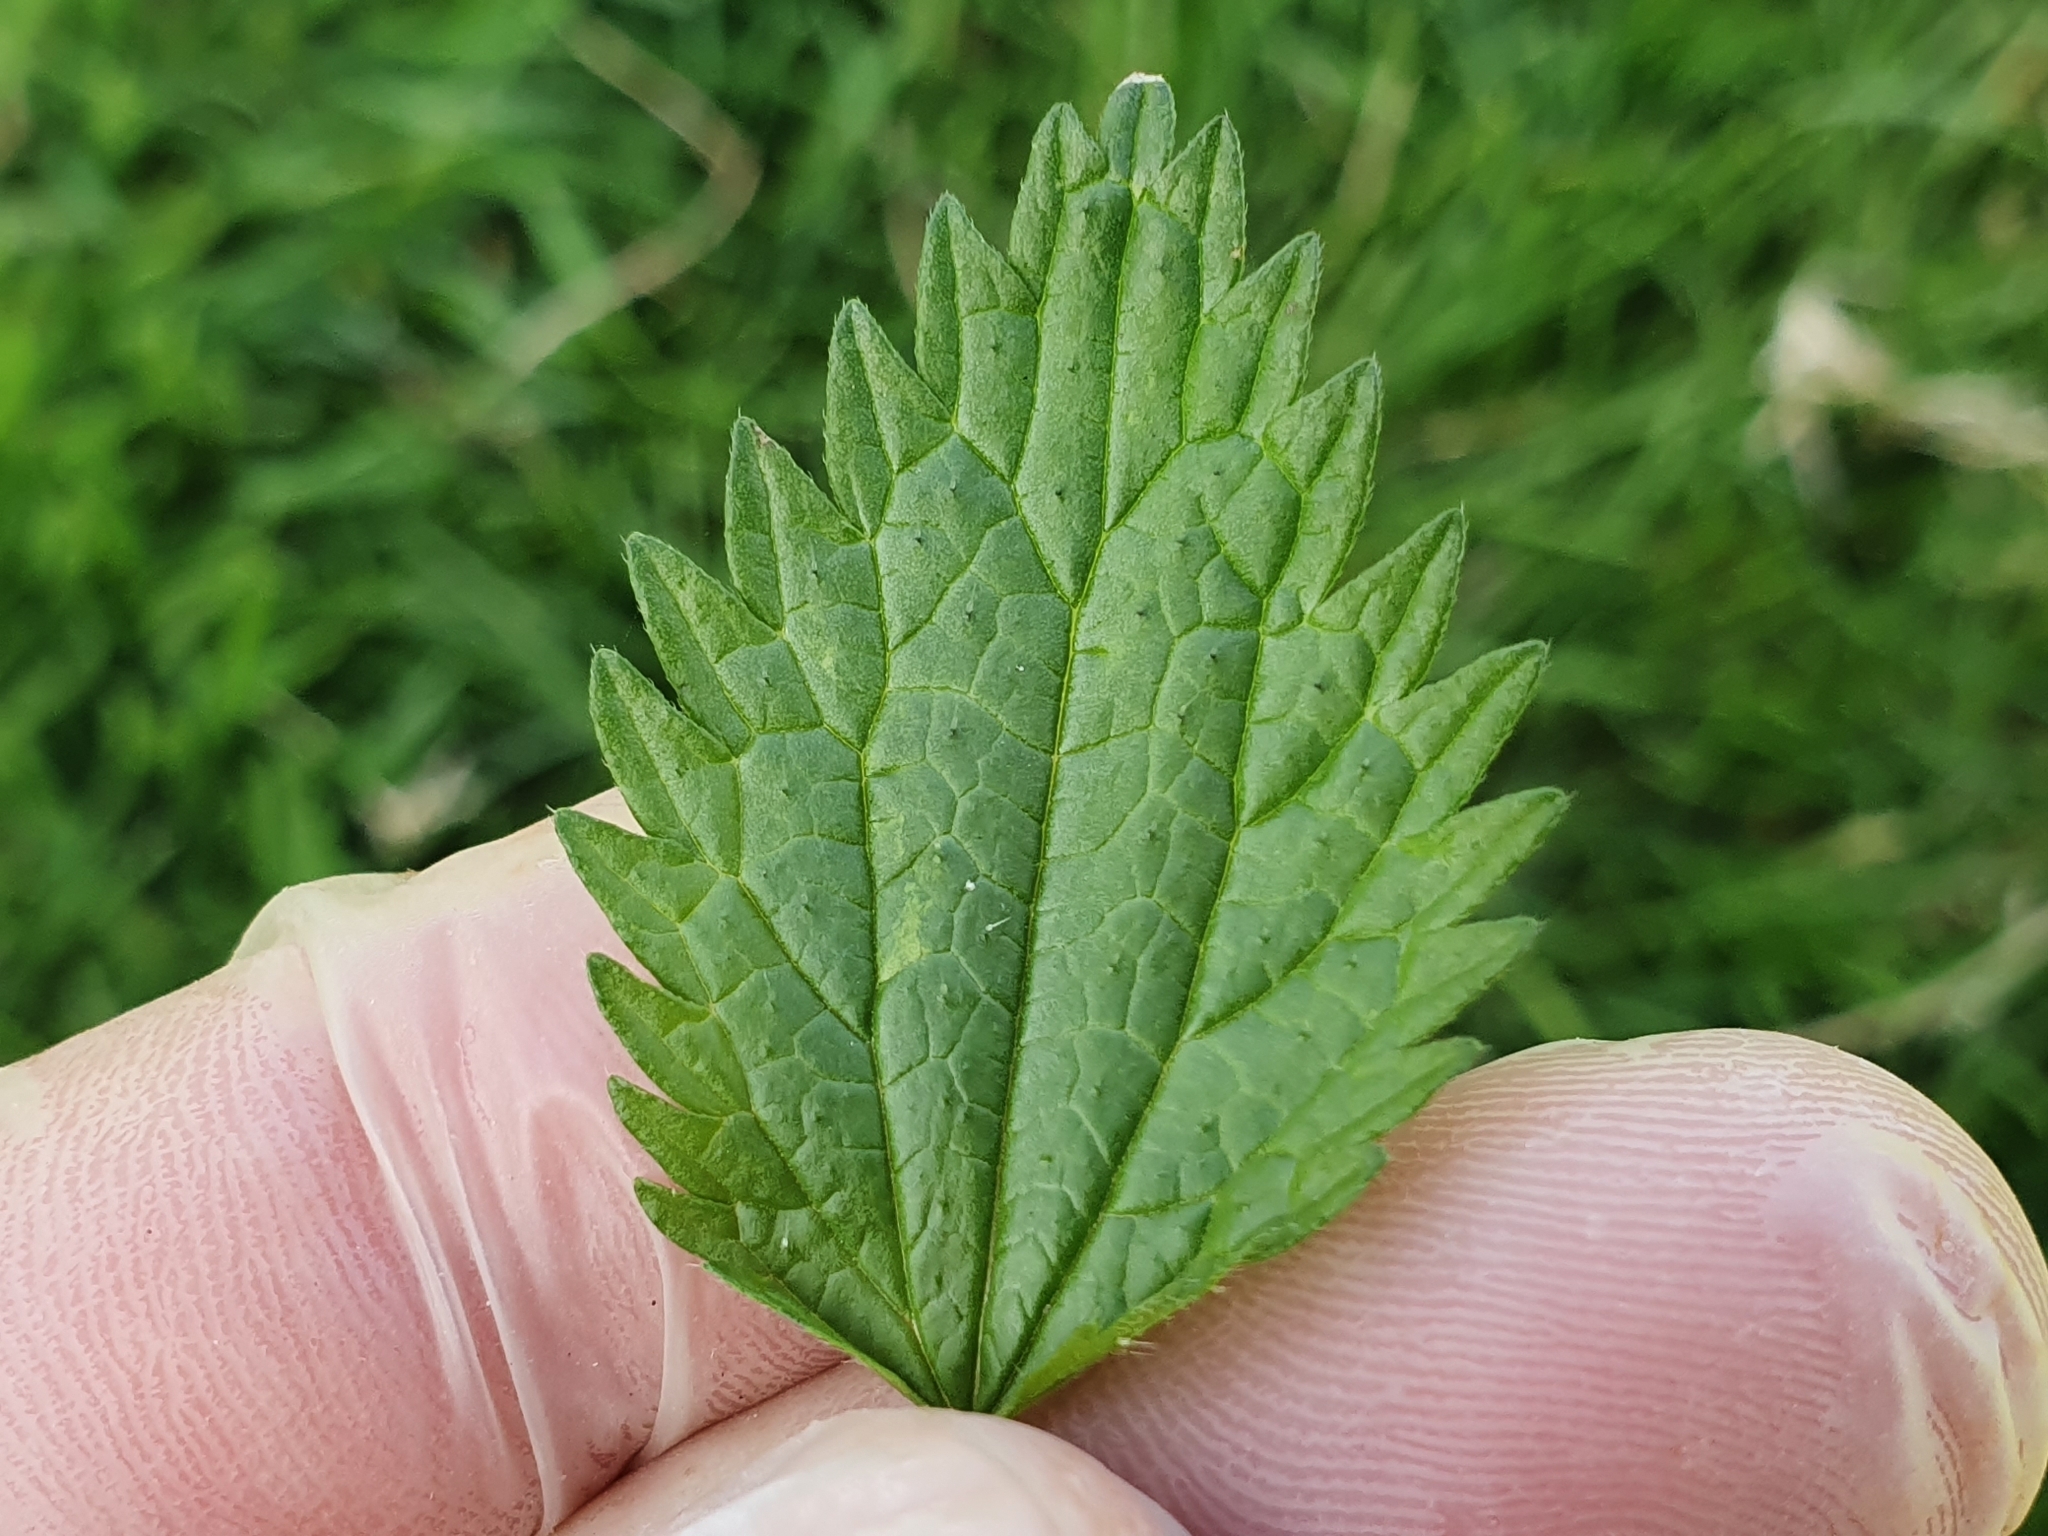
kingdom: Plantae
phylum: Tracheophyta
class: Magnoliopsida
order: Rosales
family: Urticaceae
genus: Urtica
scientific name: Urtica urens
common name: Dwarf nettle
